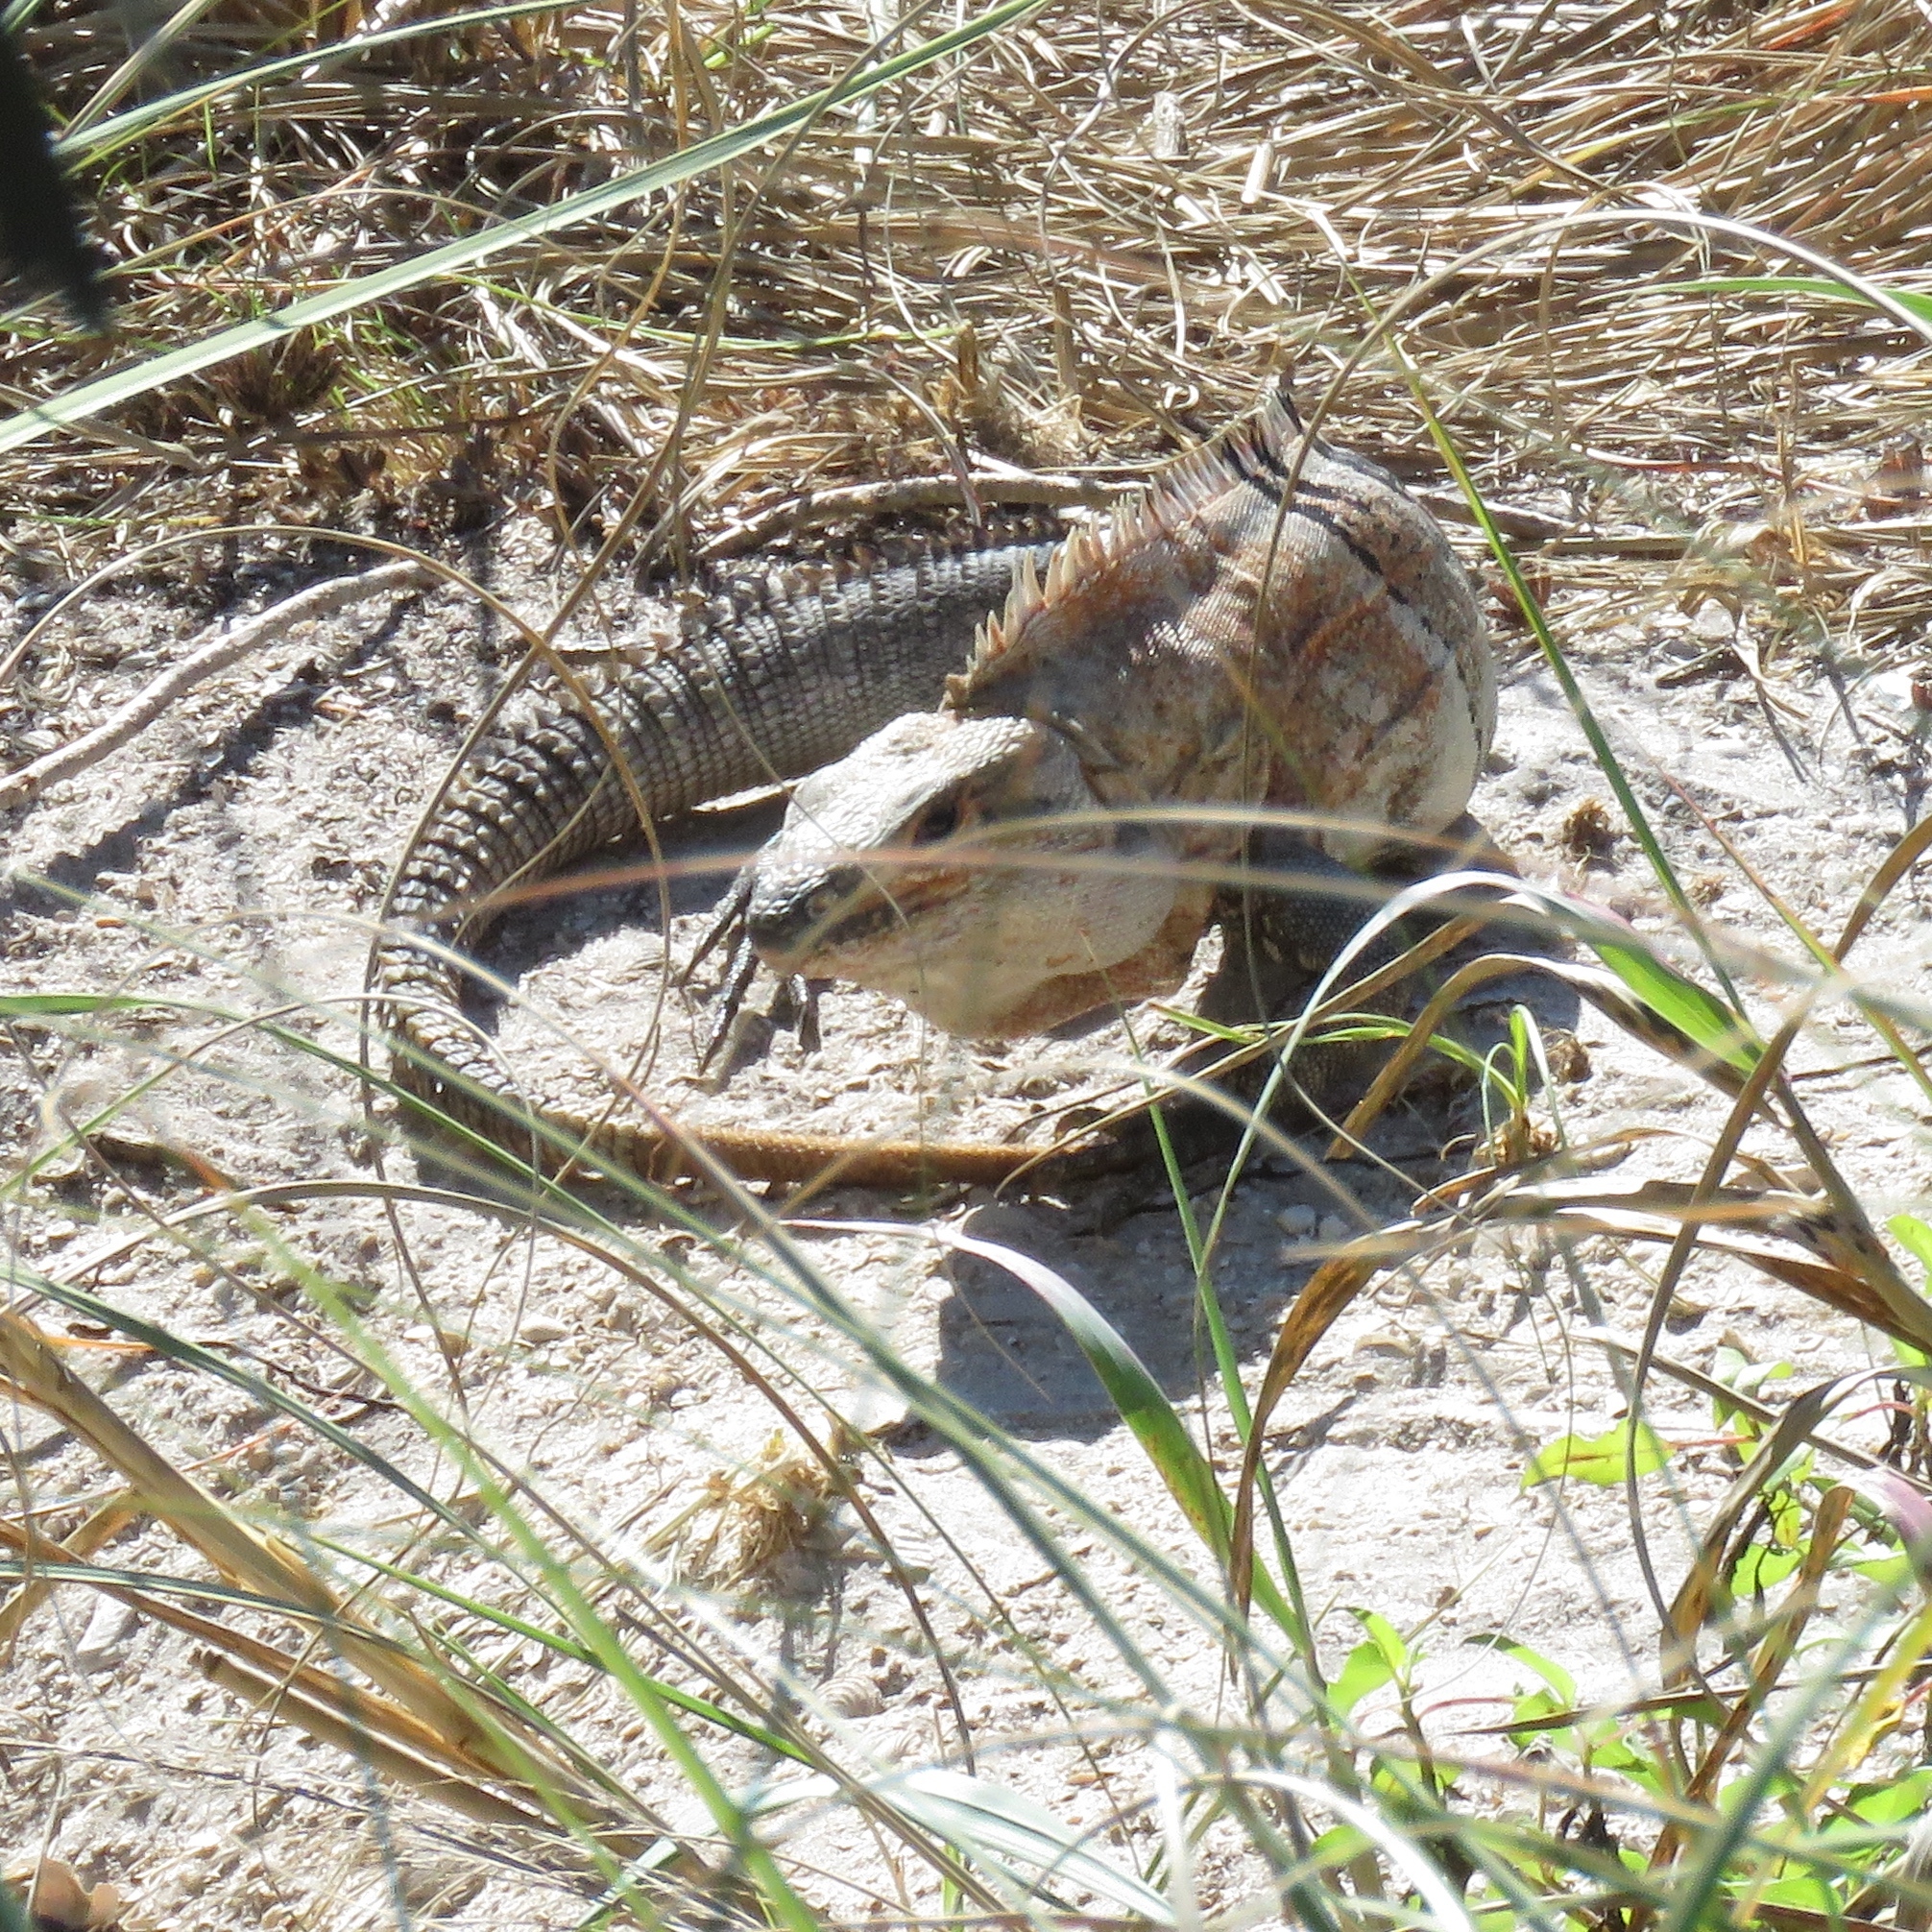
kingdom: Animalia
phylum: Chordata
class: Squamata
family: Iguanidae
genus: Ctenosaura
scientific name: Ctenosaura similis
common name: Black spiny-tailed iguana
